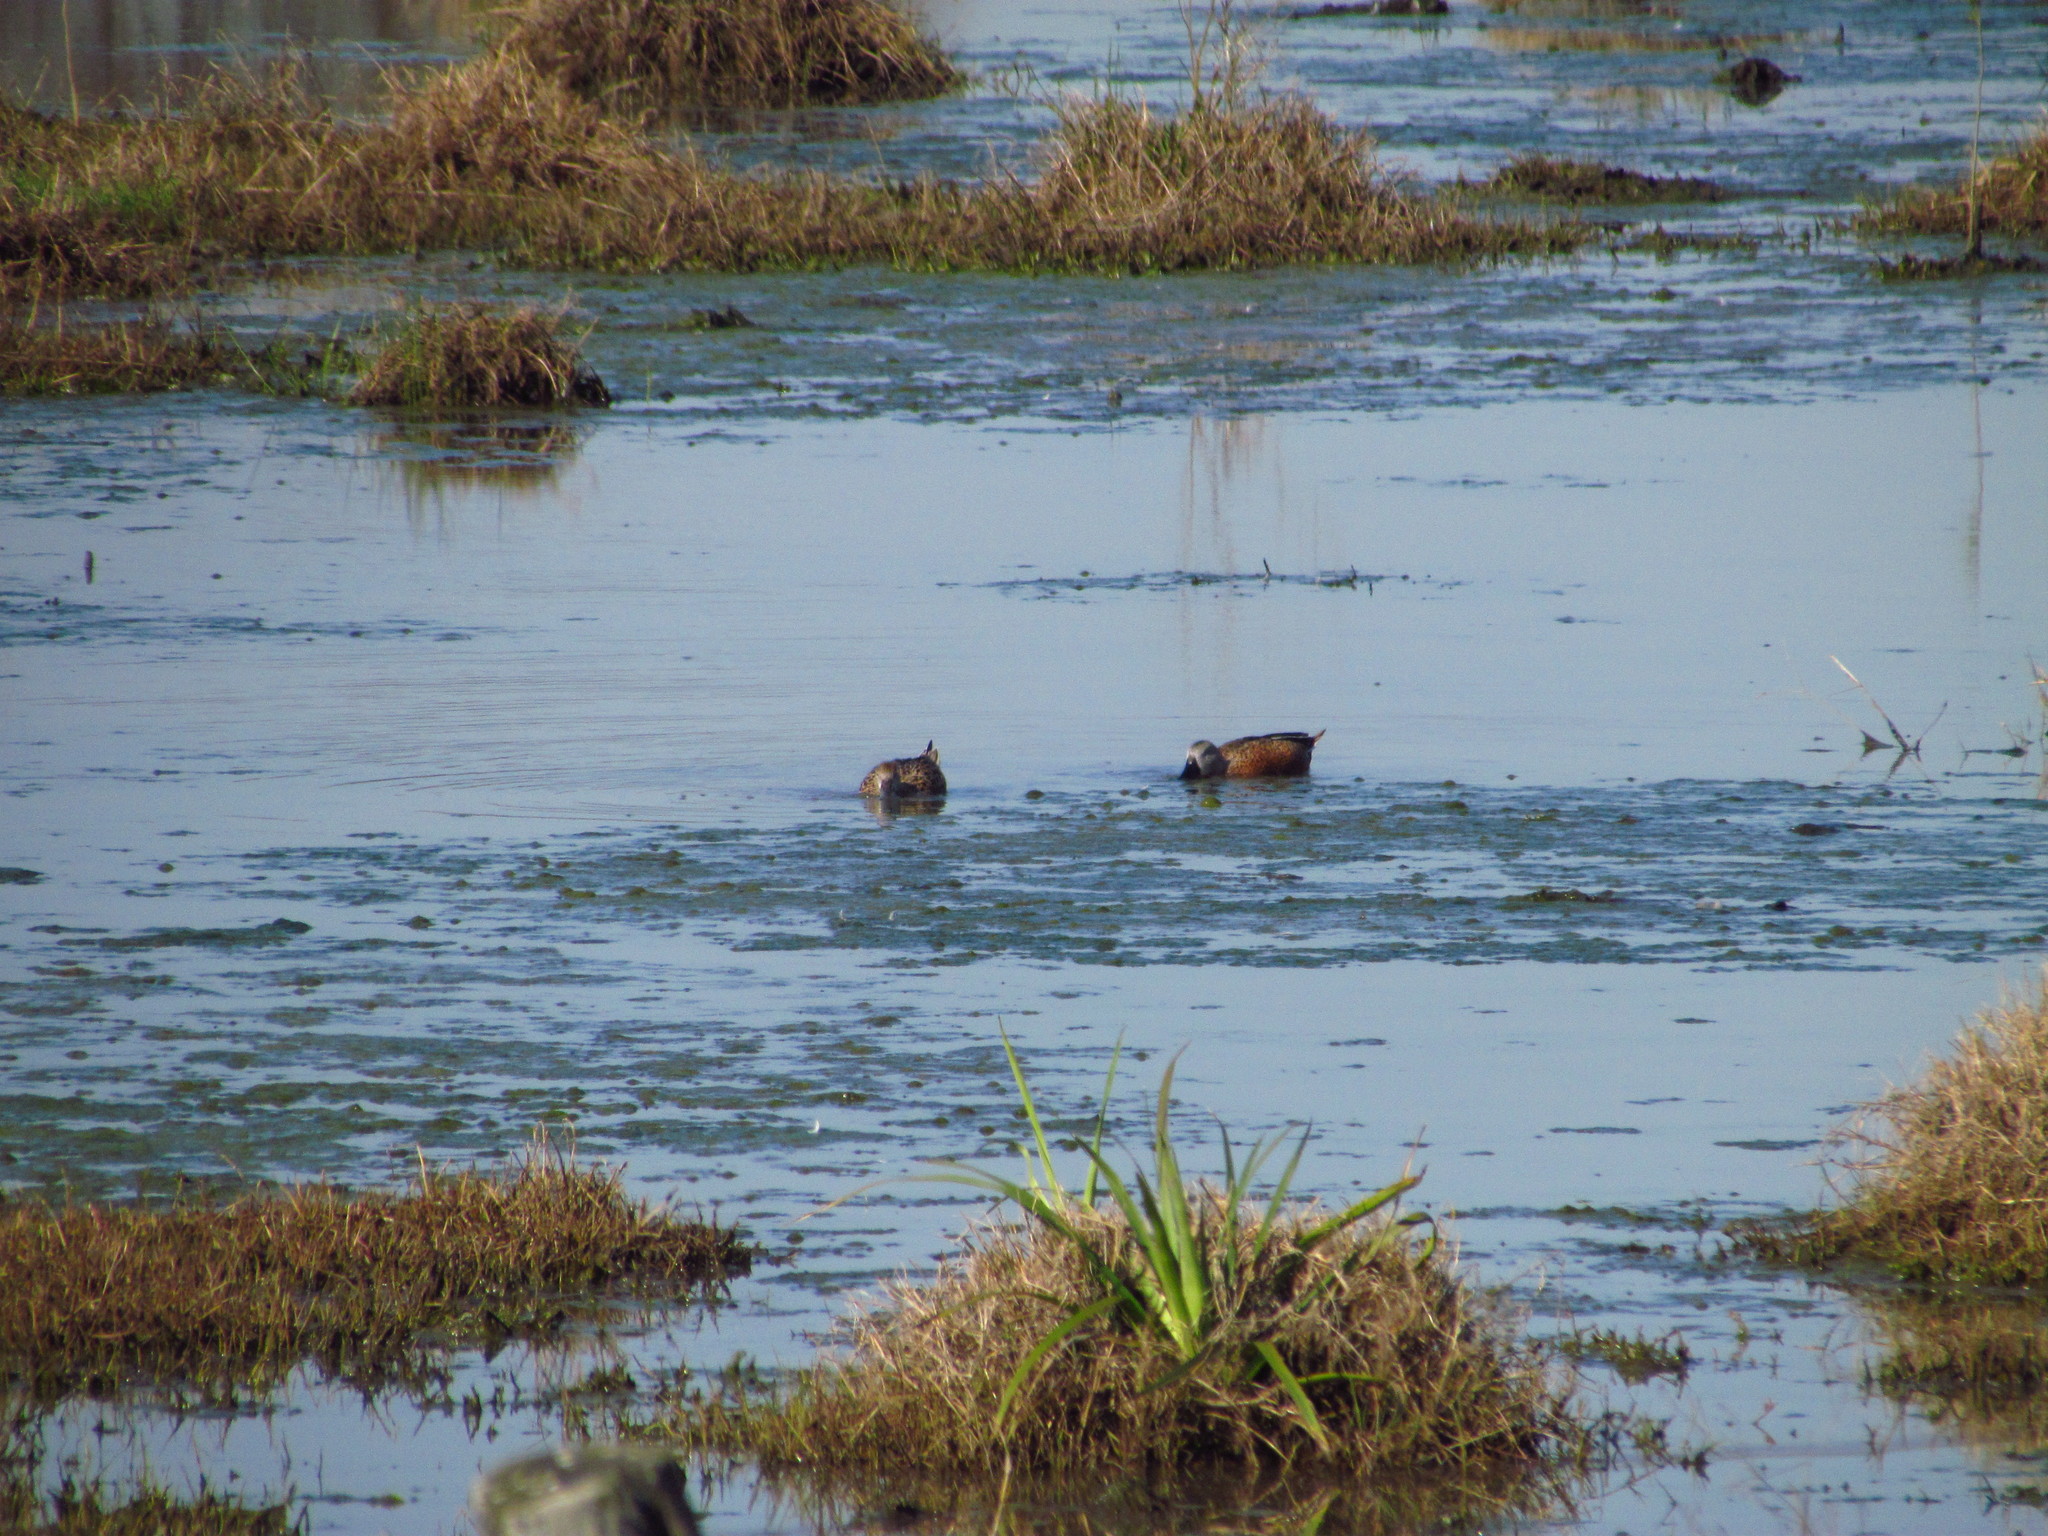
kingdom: Animalia
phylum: Chordata
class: Aves
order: Anseriformes
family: Anatidae
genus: Spatula
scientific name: Spatula platalea
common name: Red shoveler
